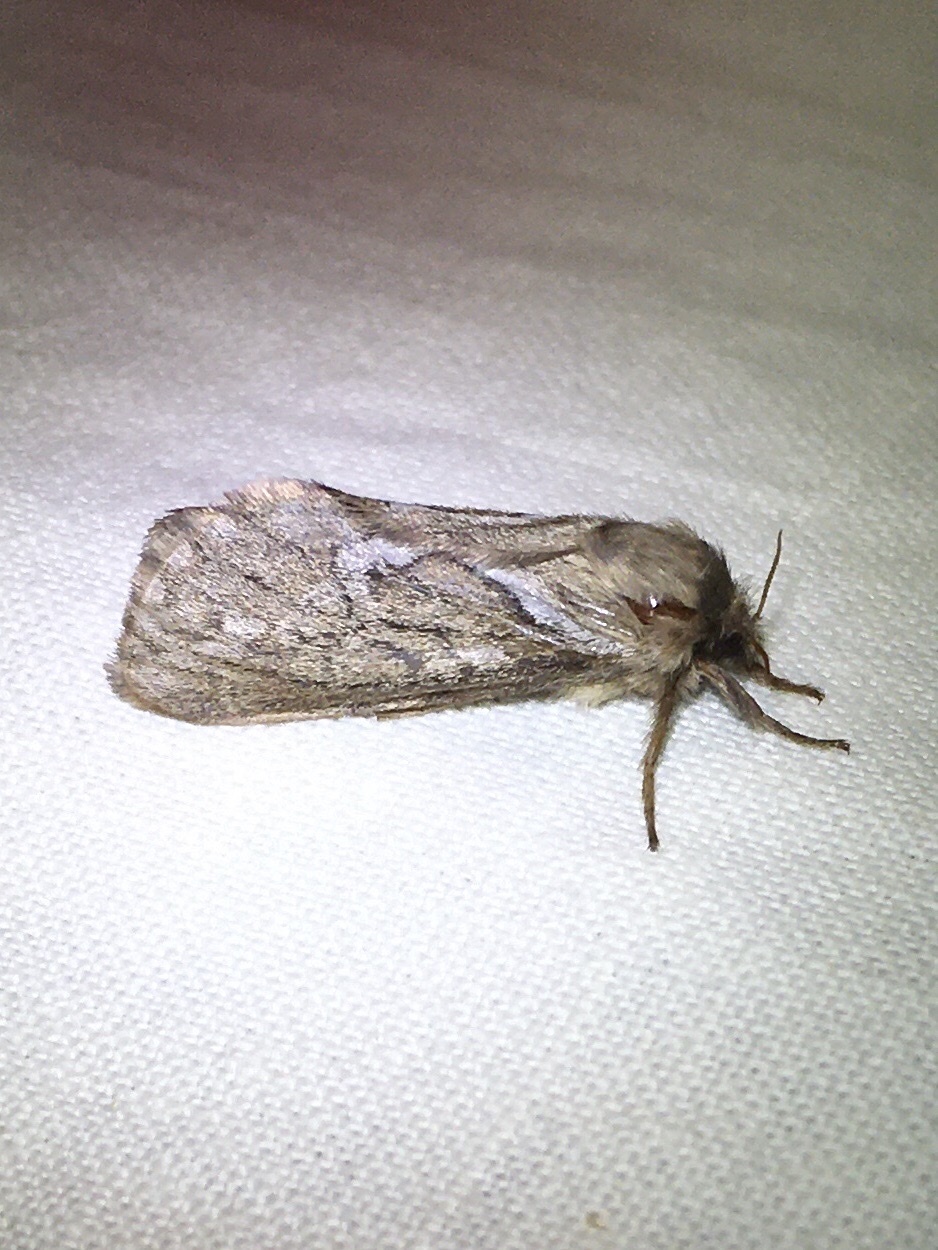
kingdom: Animalia
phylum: Arthropoda
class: Insecta
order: Lepidoptera
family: Hepialidae
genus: Korscheltellus
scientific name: Korscheltellus lupulina
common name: Common swift
